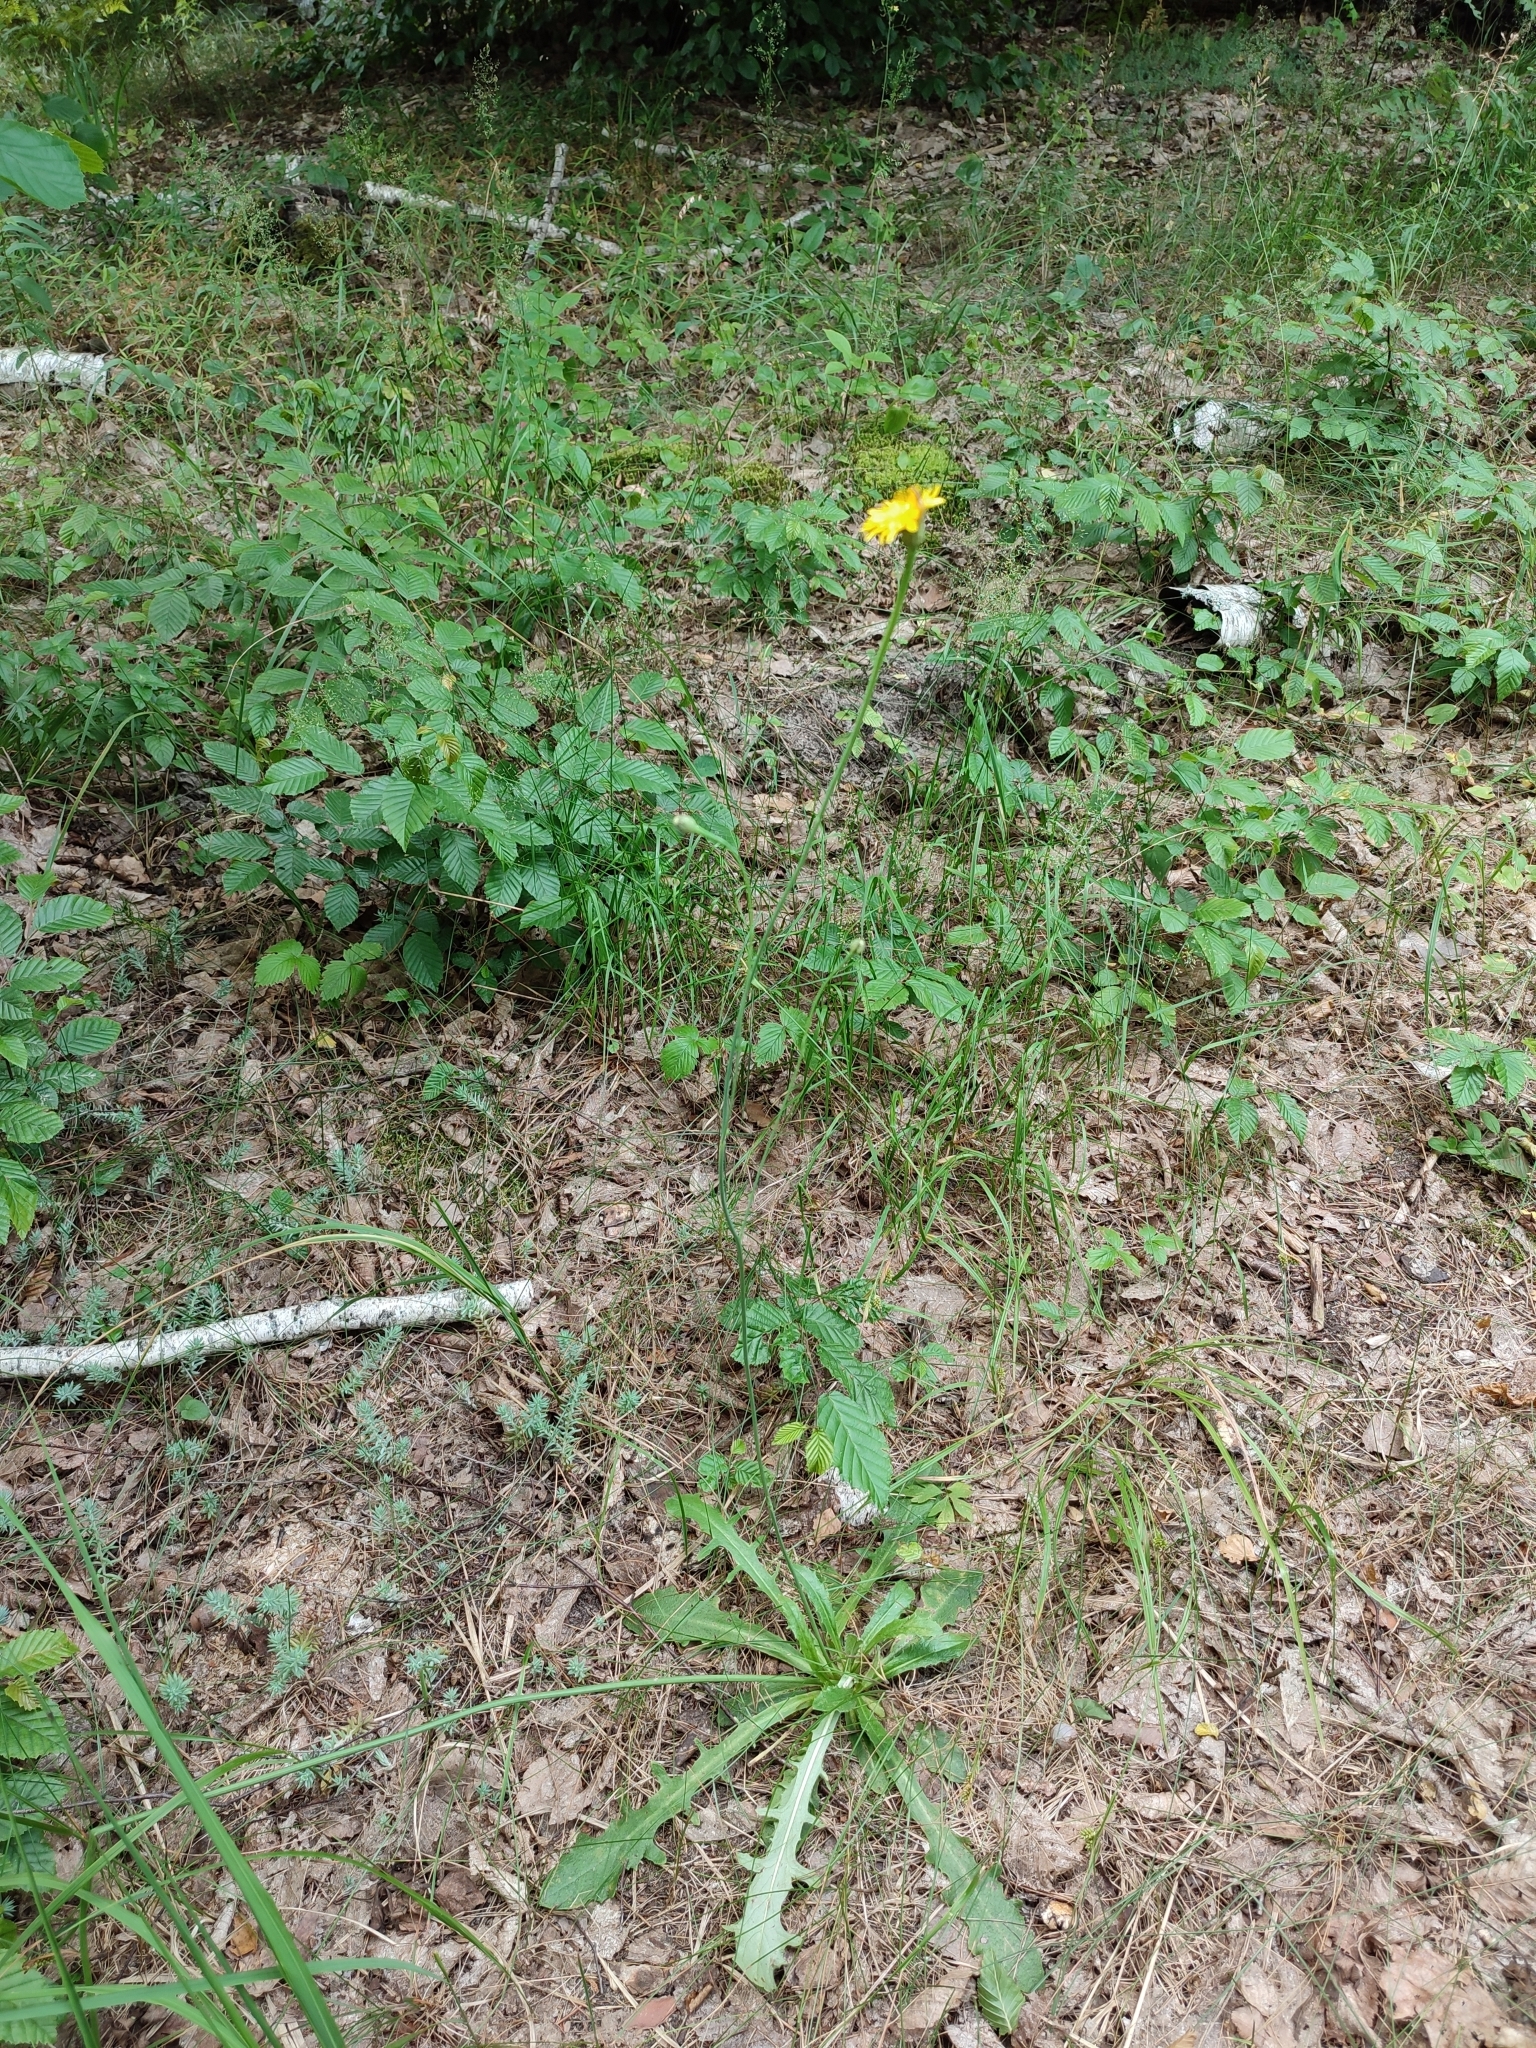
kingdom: Plantae
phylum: Tracheophyta
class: Magnoliopsida
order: Asterales
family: Asteraceae
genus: Hypochaeris
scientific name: Hypochaeris radicata
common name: Flatweed
